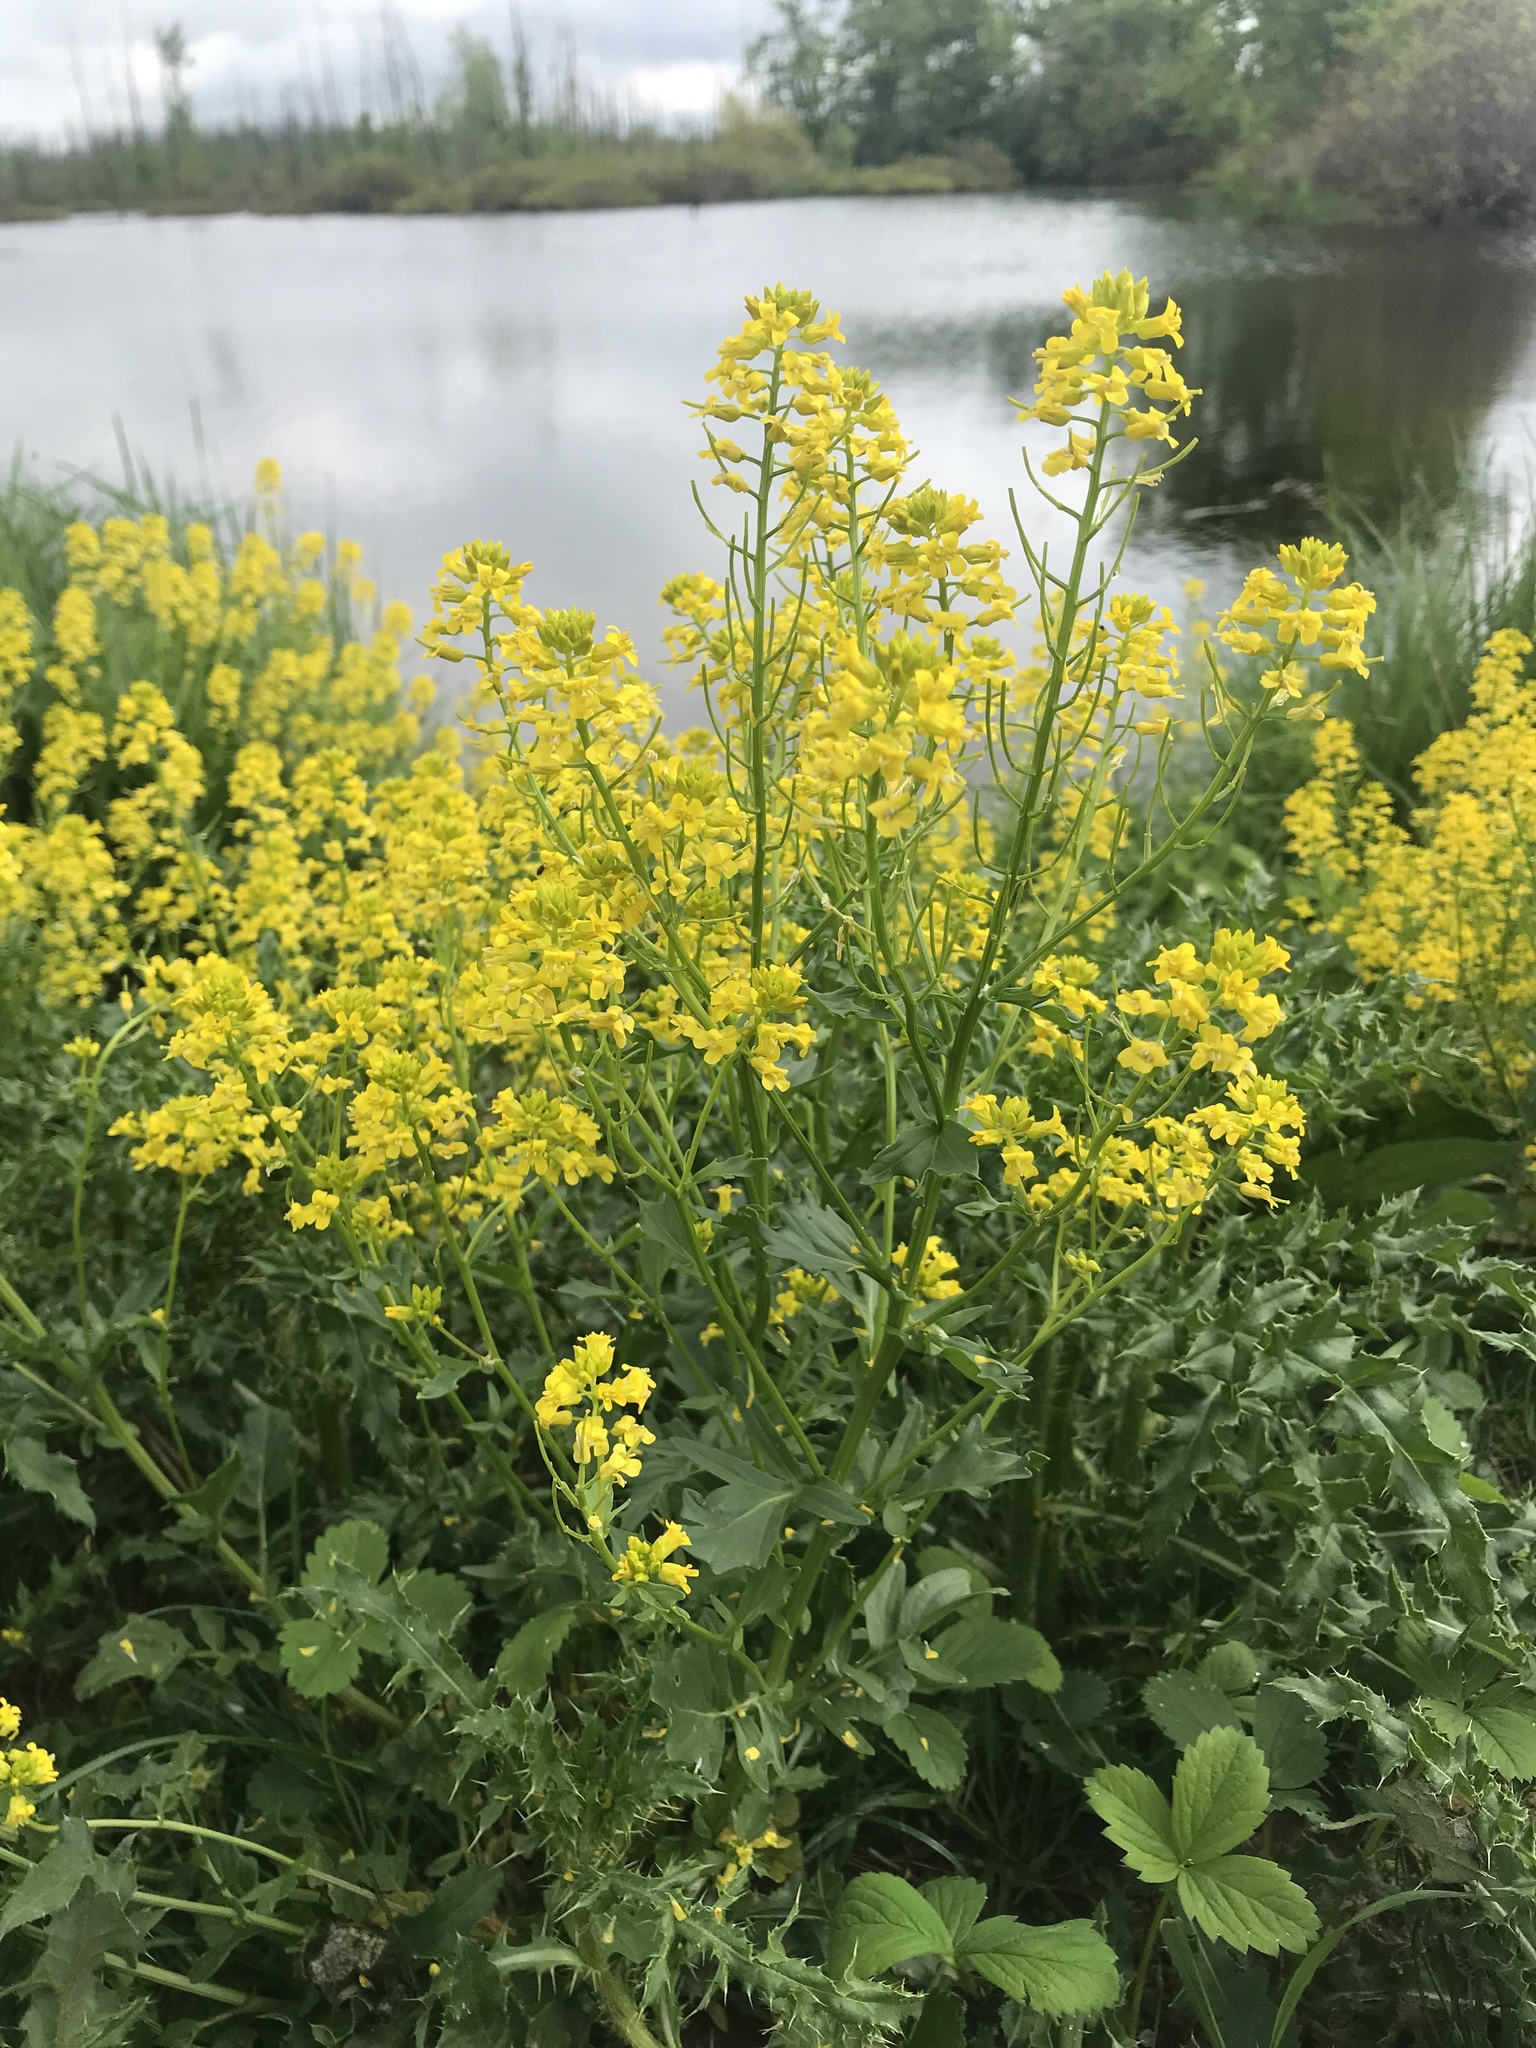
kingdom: Plantae
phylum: Tracheophyta
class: Magnoliopsida
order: Brassicales
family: Brassicaceae
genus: Barbarea
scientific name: Barbarea vulgaris
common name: Cressy-greens
